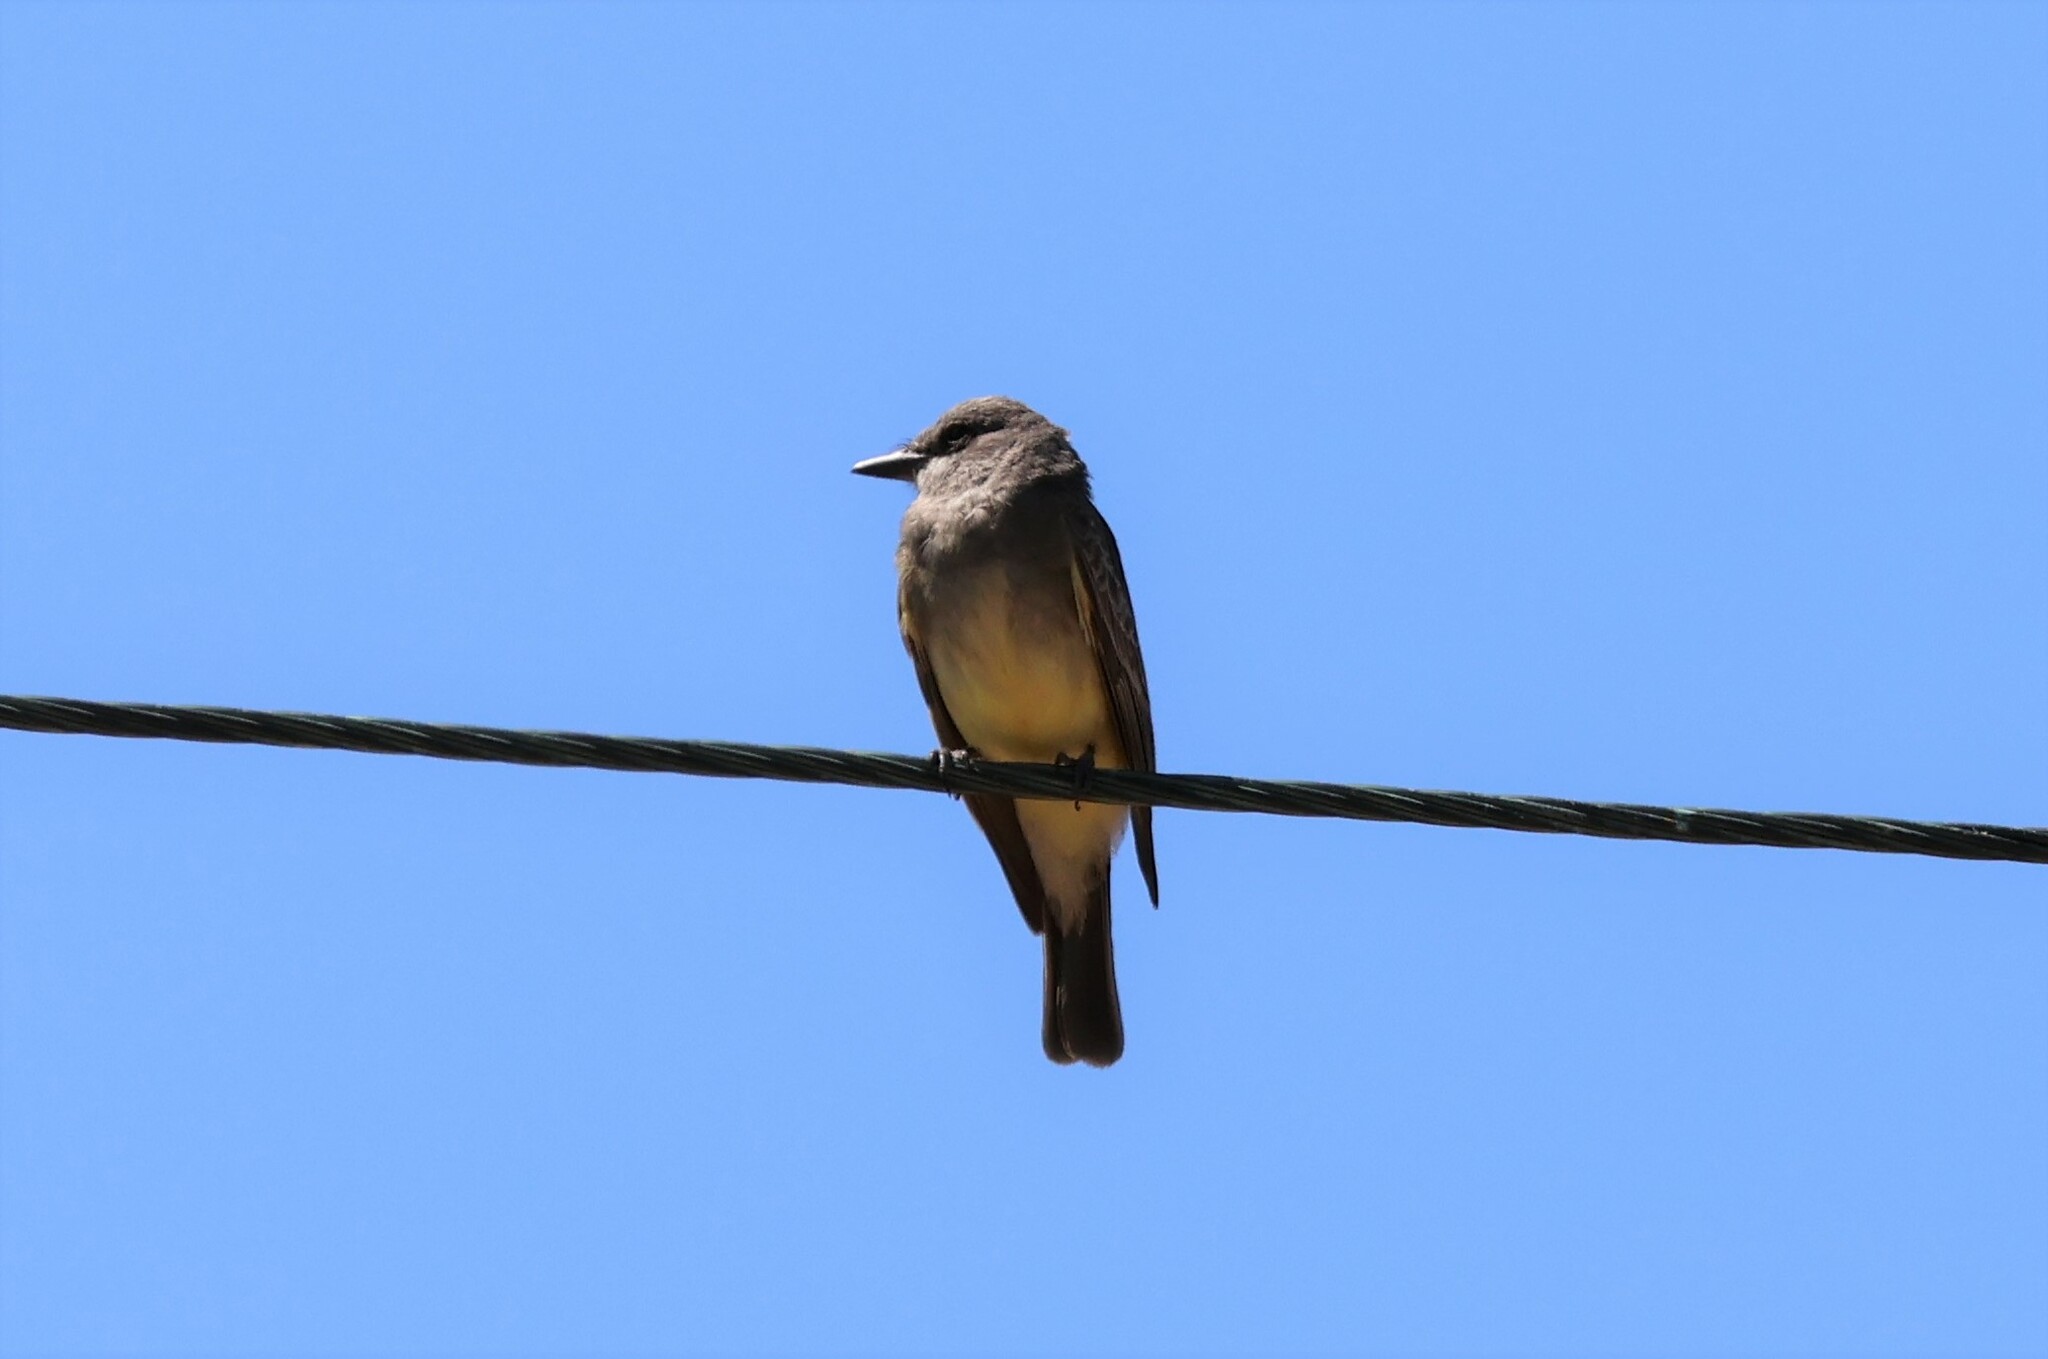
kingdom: Animalia
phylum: Chordata
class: Aves
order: Passeriformes
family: Tyrannidae
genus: Tyrannus
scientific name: Tyrannus vociferans
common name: Cassin's kingbird
